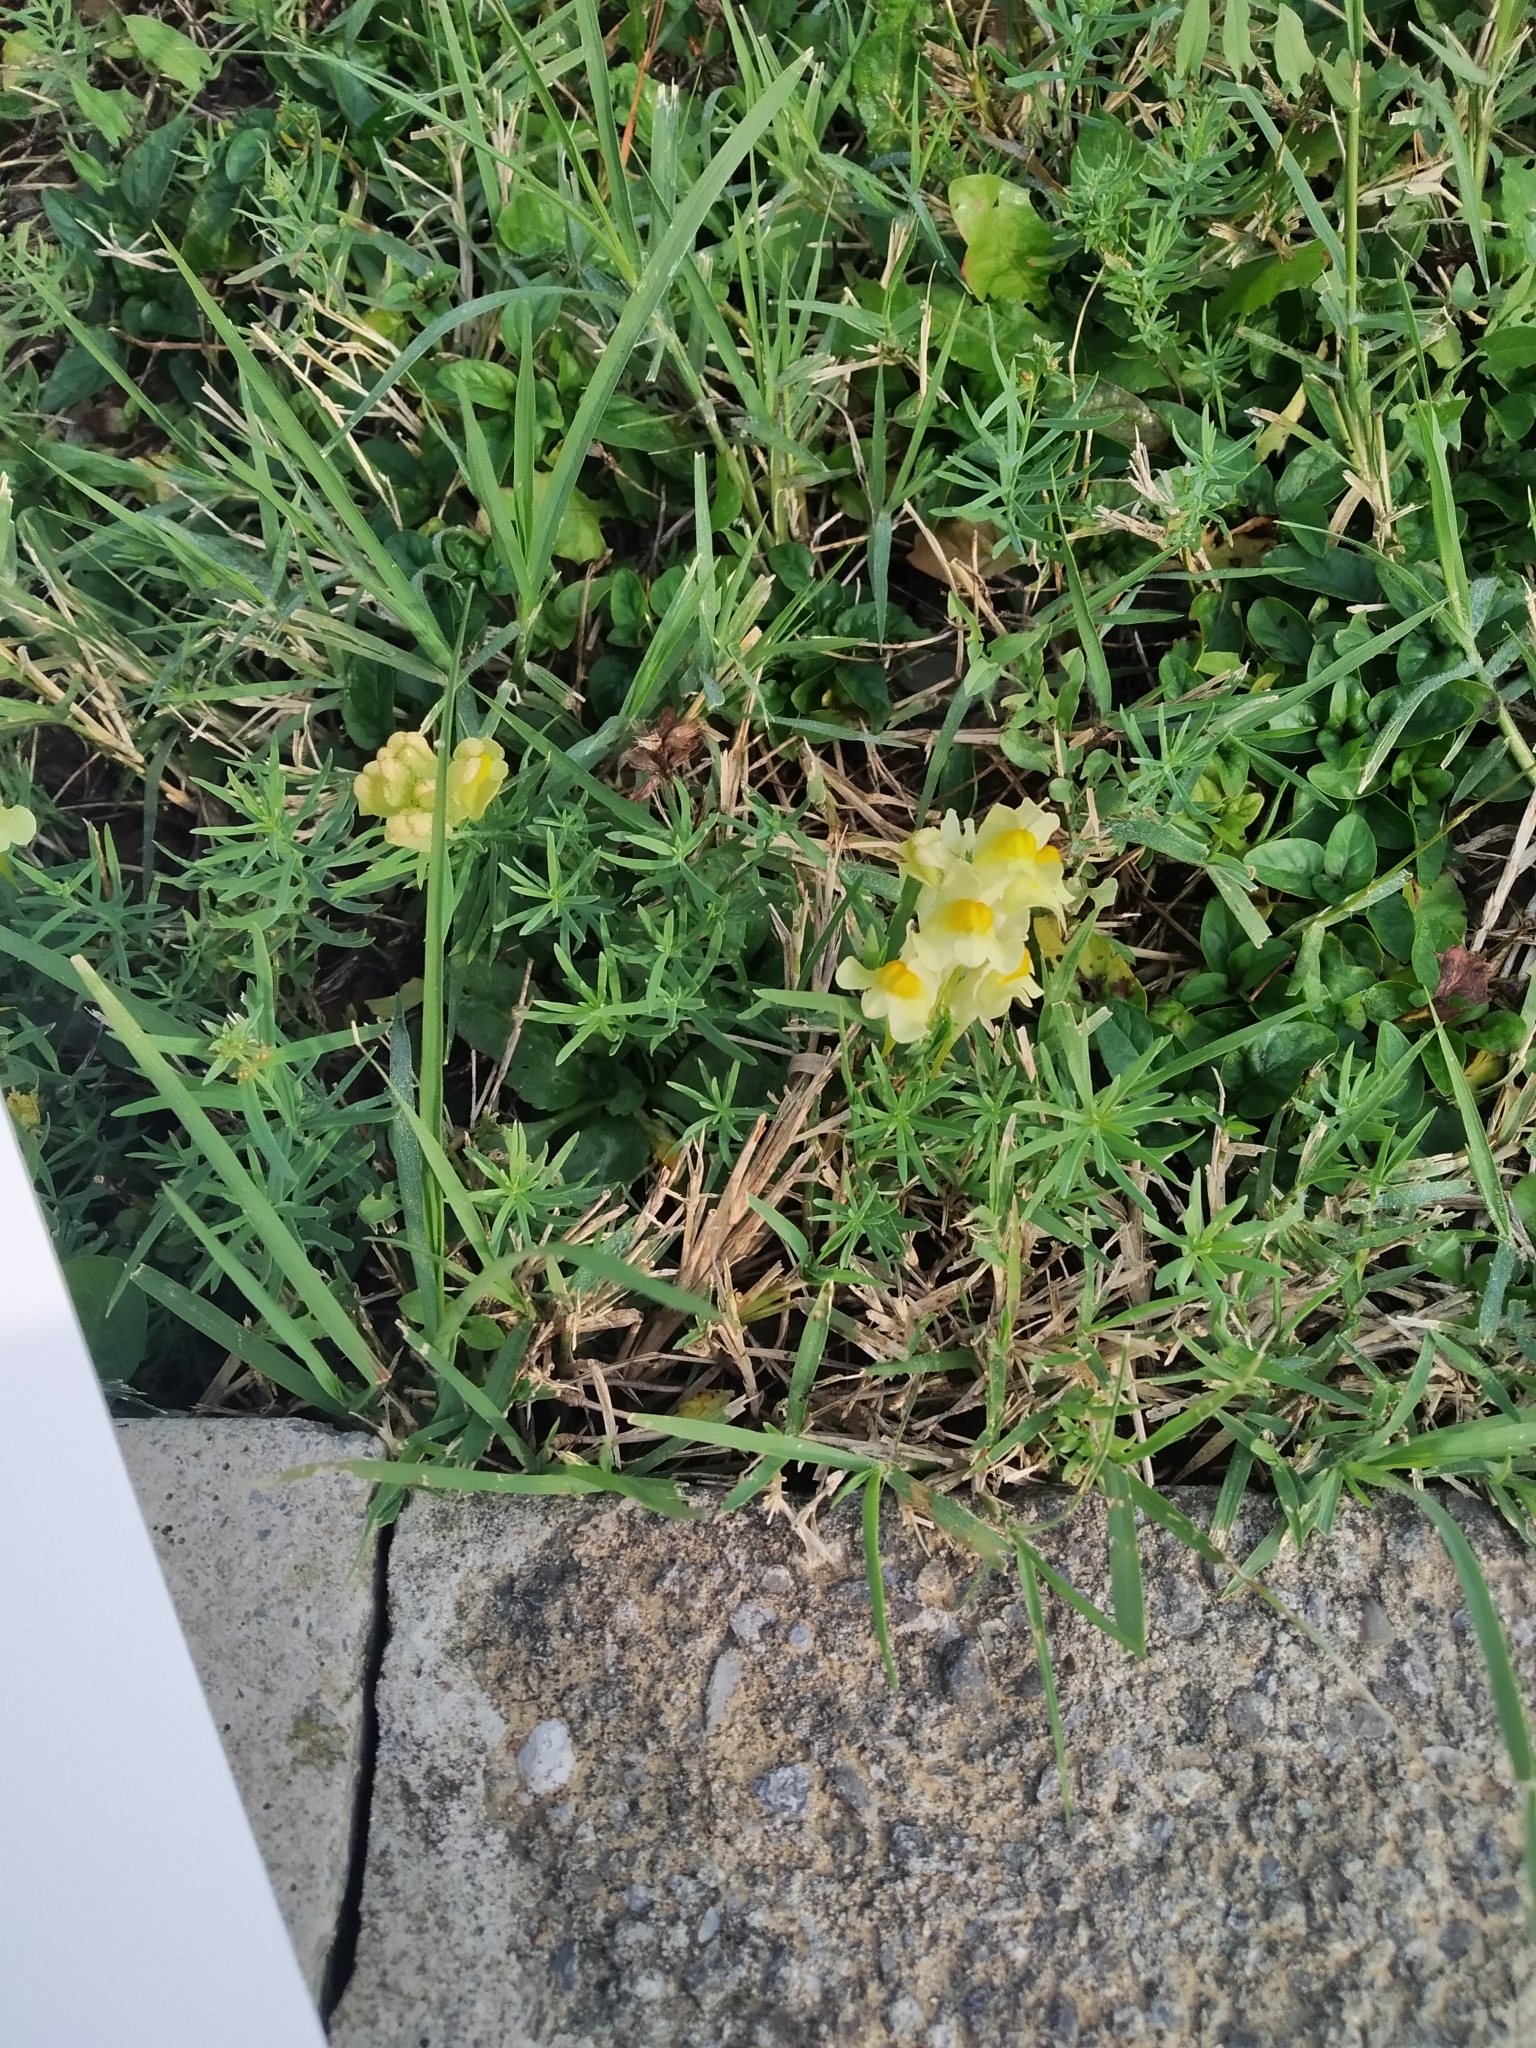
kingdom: Plantae
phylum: Tracheophyta
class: Magnoliopsida
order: Lamiales
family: Plantaginaceae
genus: Linaria
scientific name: Linaria vulgaris
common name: Butter and eggs
